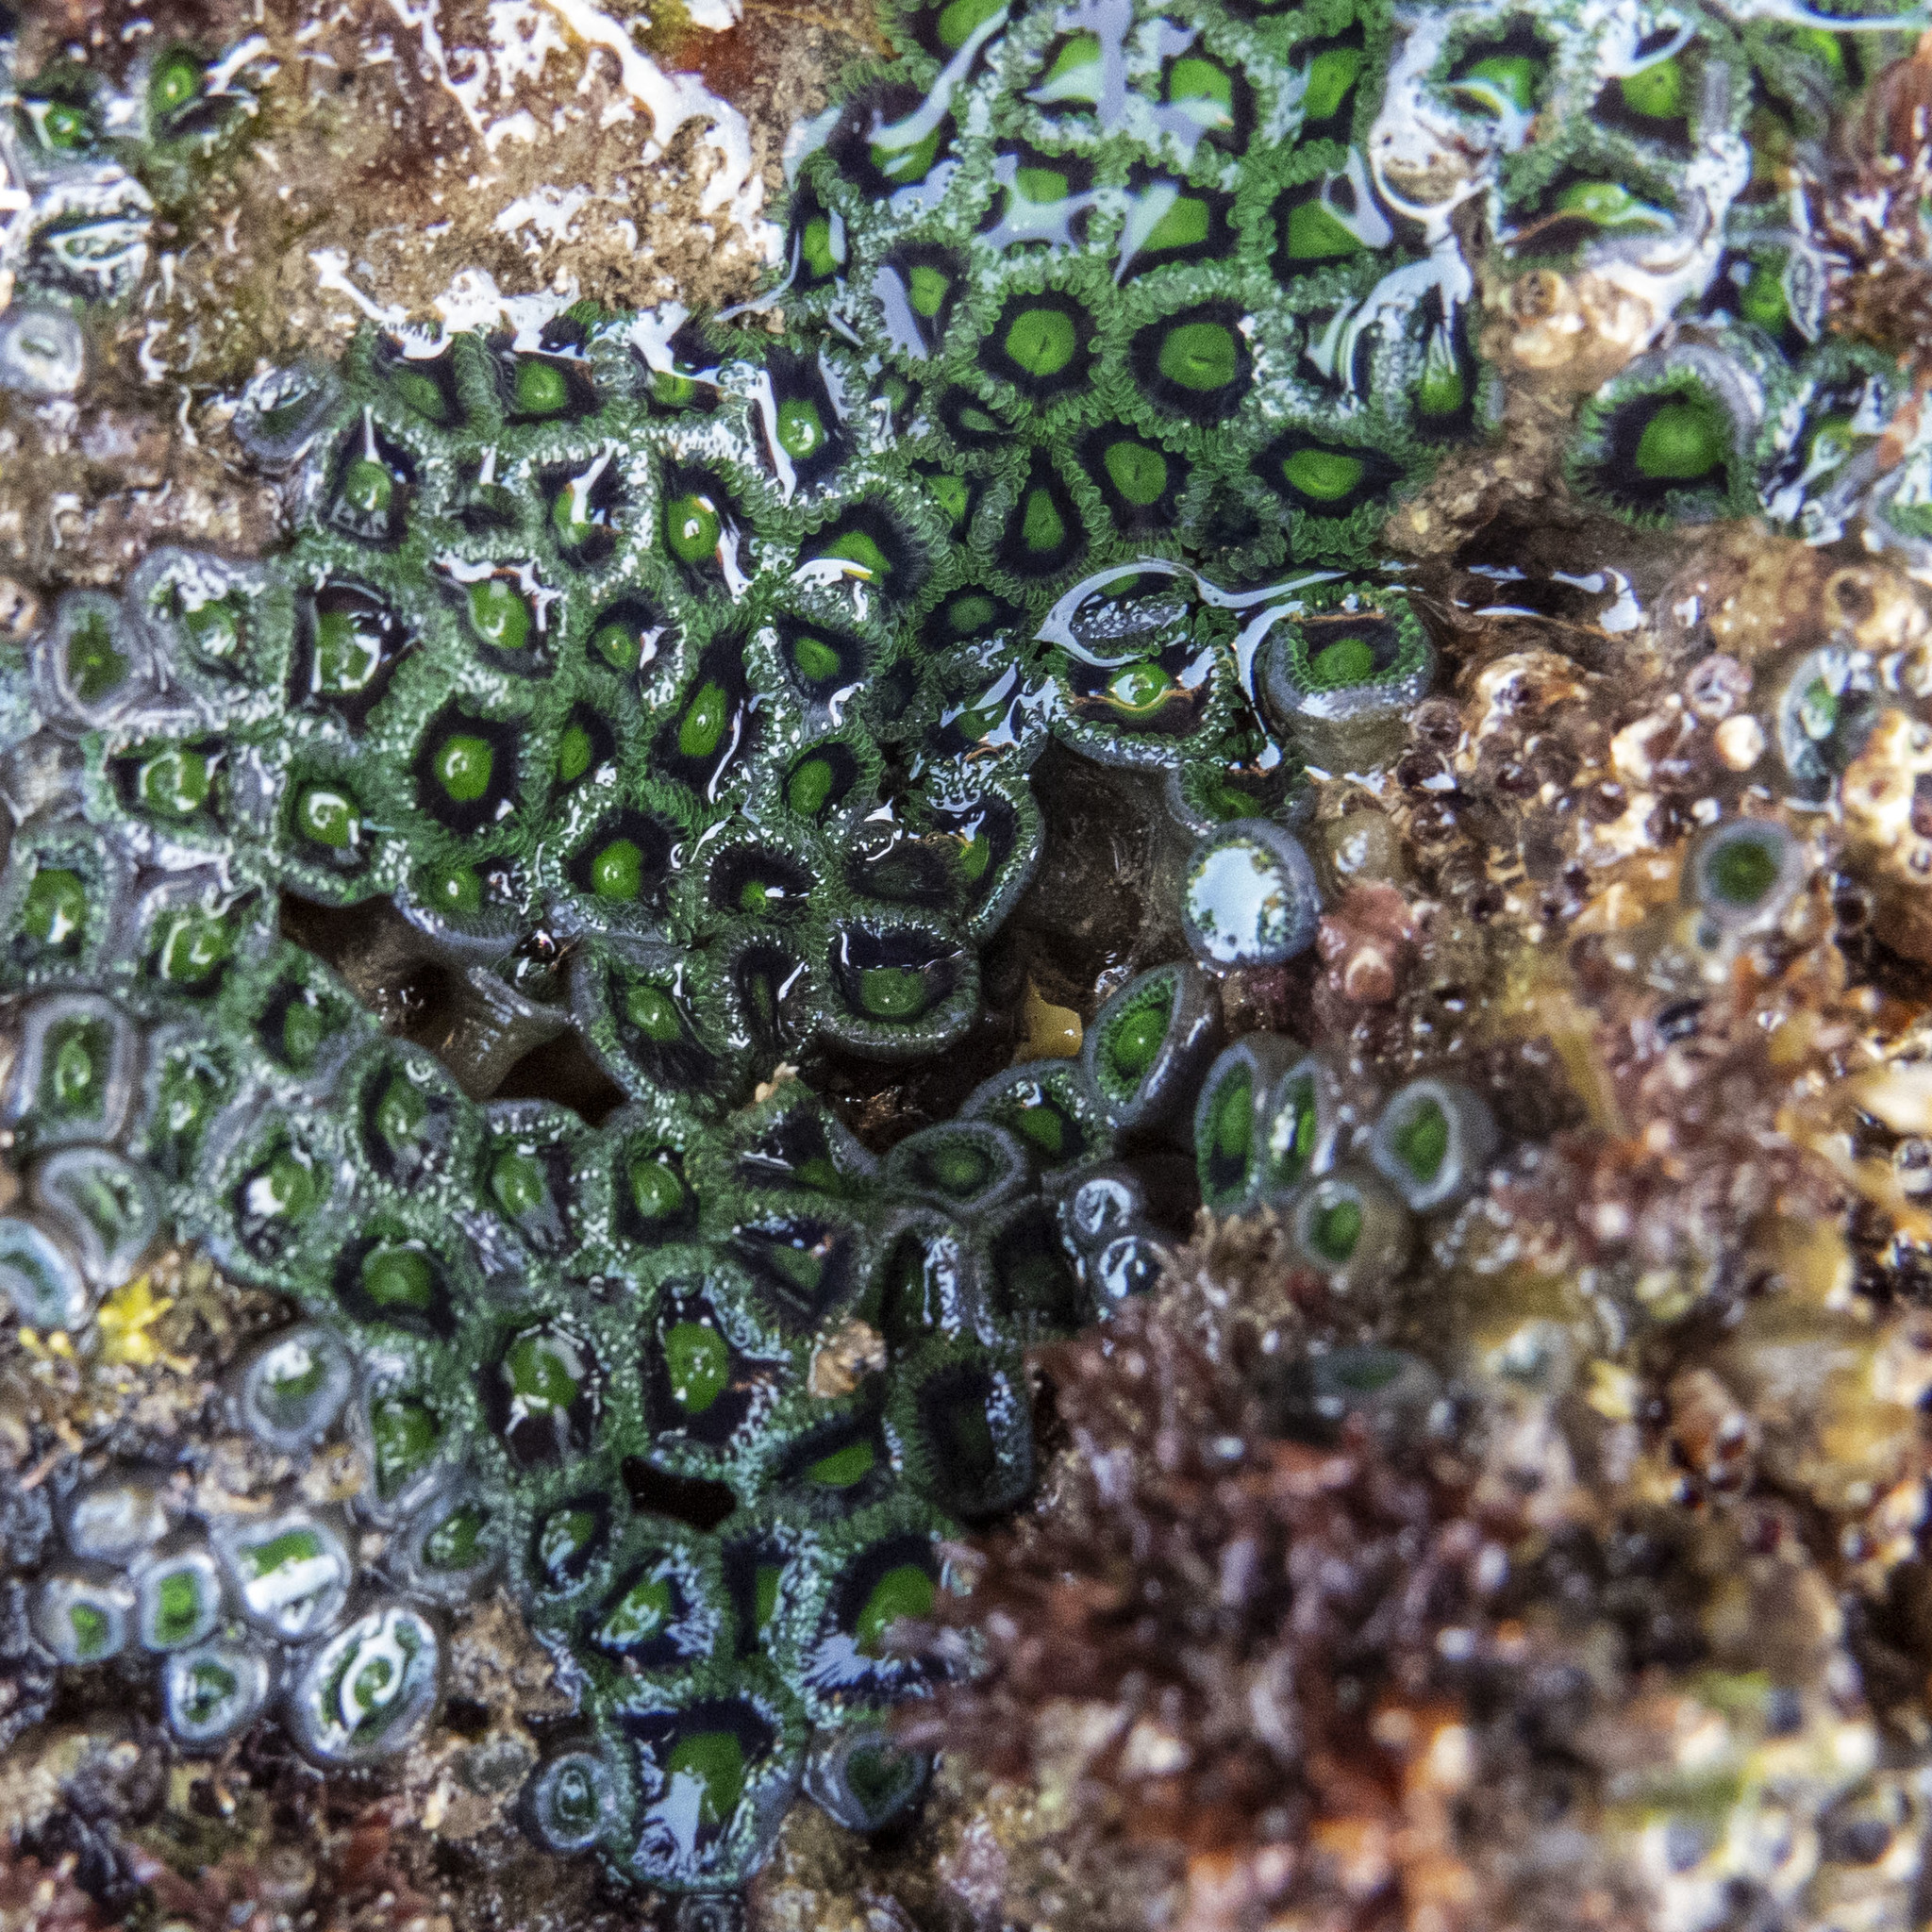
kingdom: Animalia
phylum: Cnidaria
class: Anthozoa
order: Zoantharia
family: Zoanthidae
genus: Zoanthus
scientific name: Zoanthus sansibaricus
